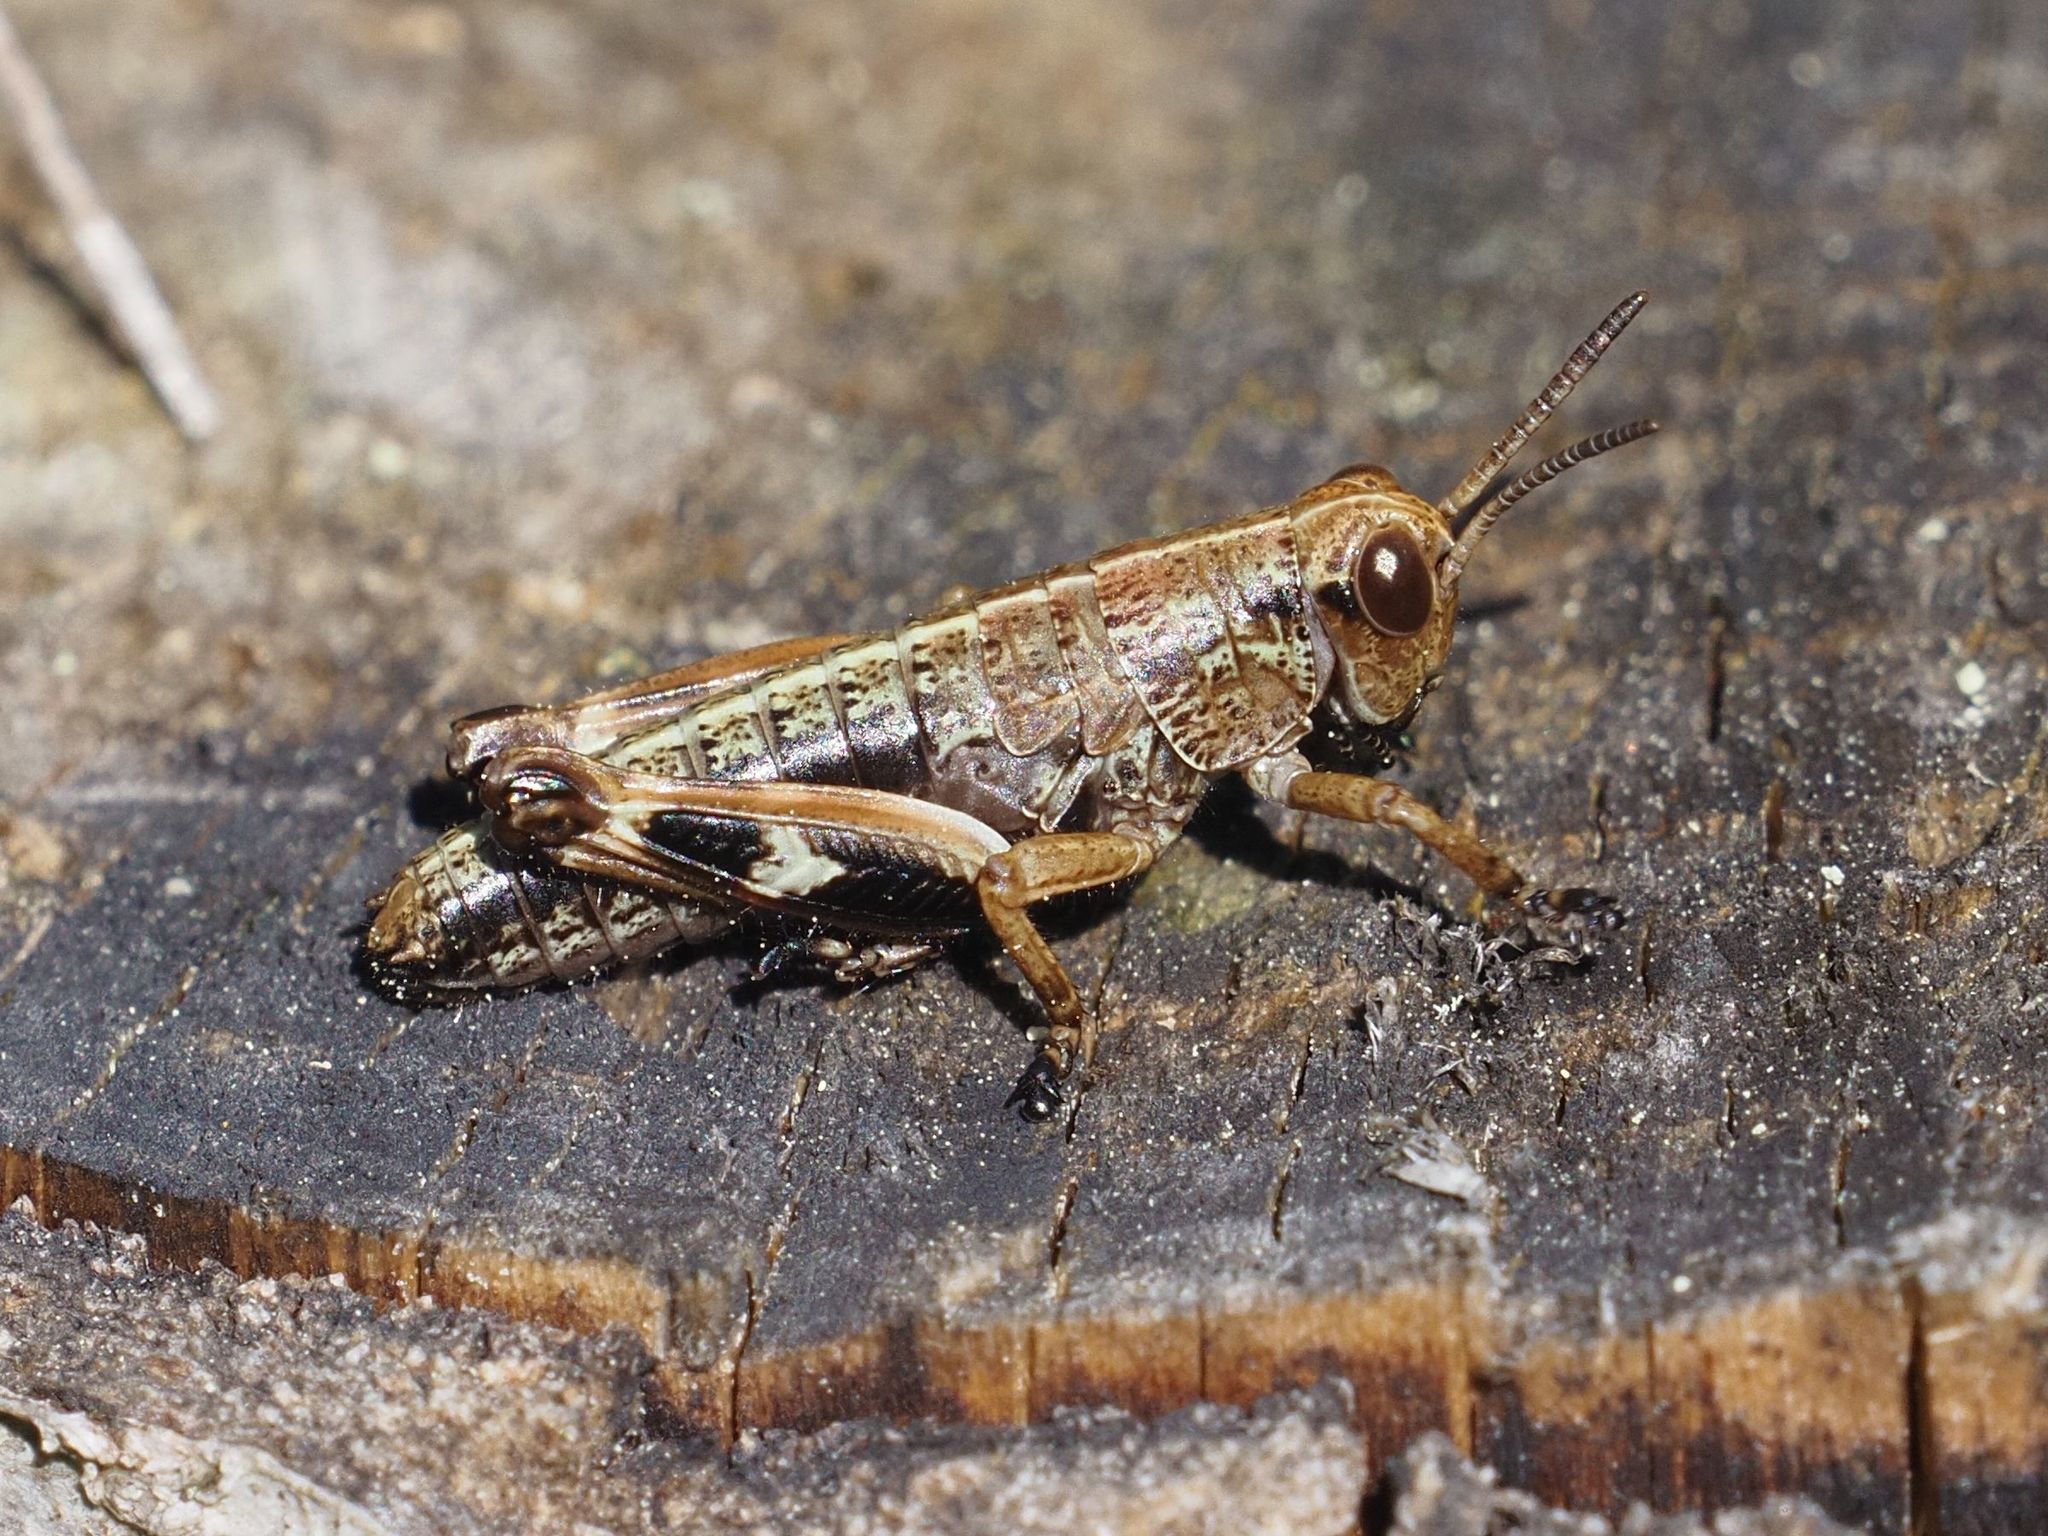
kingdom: Animalia
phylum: Arthropoda
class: Insecta
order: Orthoptera
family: Acrididae
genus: Miramella
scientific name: Miramella alpina
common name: Green mountain grasshopper
